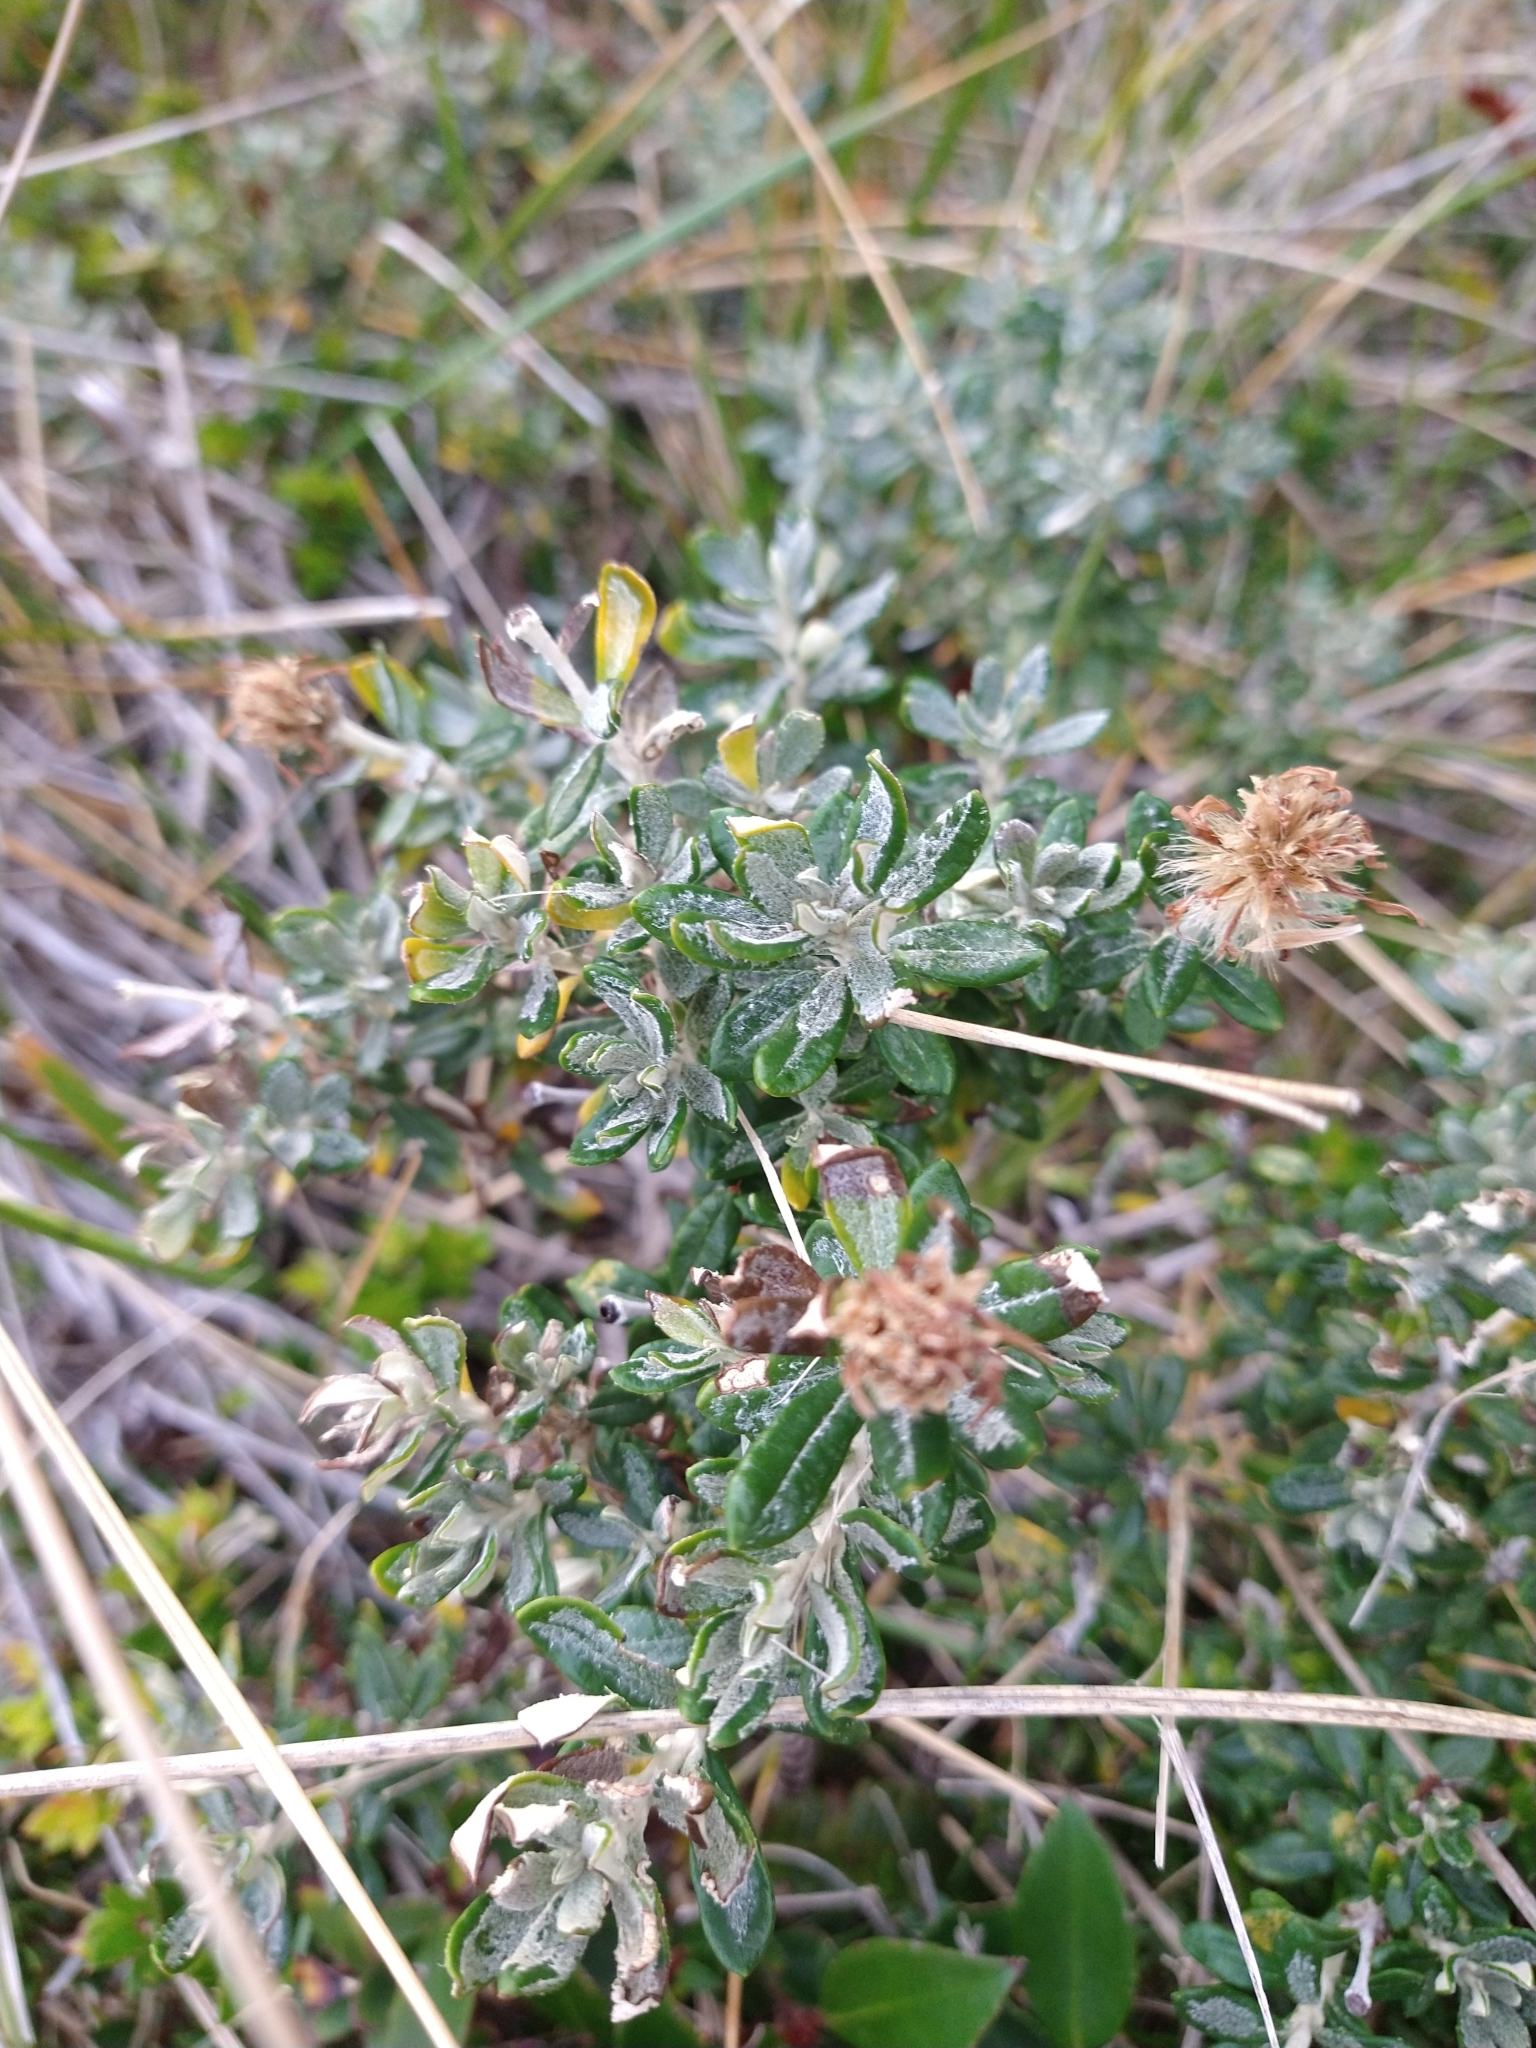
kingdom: Plantae
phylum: Tracheophyta
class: Magnoliopsida
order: Asterales
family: Asteraceae
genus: Chiliotrichum
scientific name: Chiliotrichum diffusum
